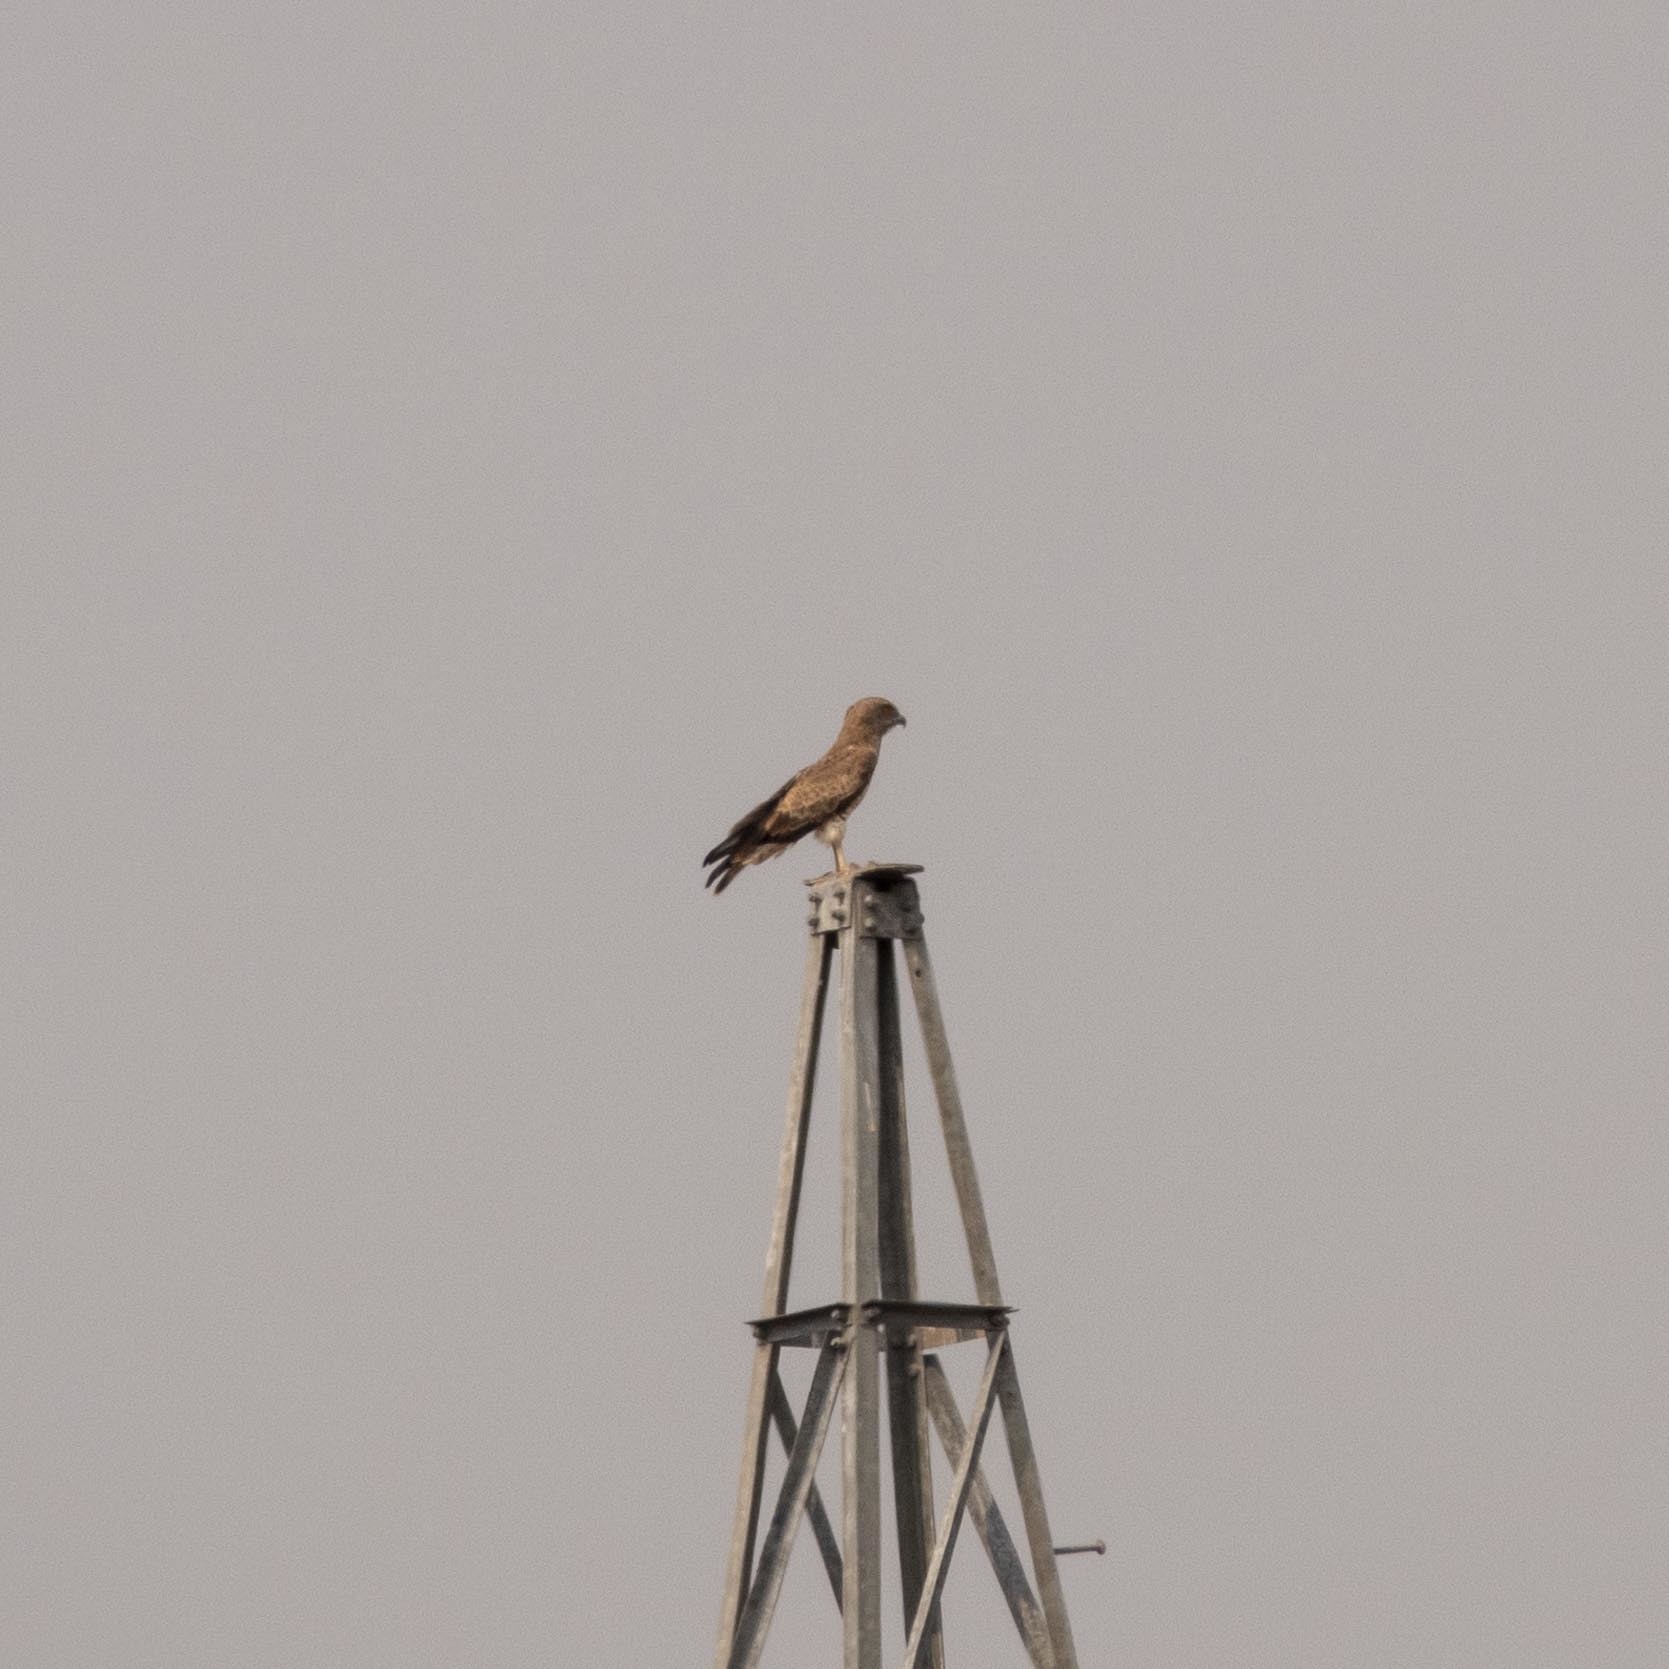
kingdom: Animalia
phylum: Chordata
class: Aves
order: Accipitriformes
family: Accipitridae
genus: Circaetus
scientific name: Circaetus gallicus
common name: Short-toed snake eagle
